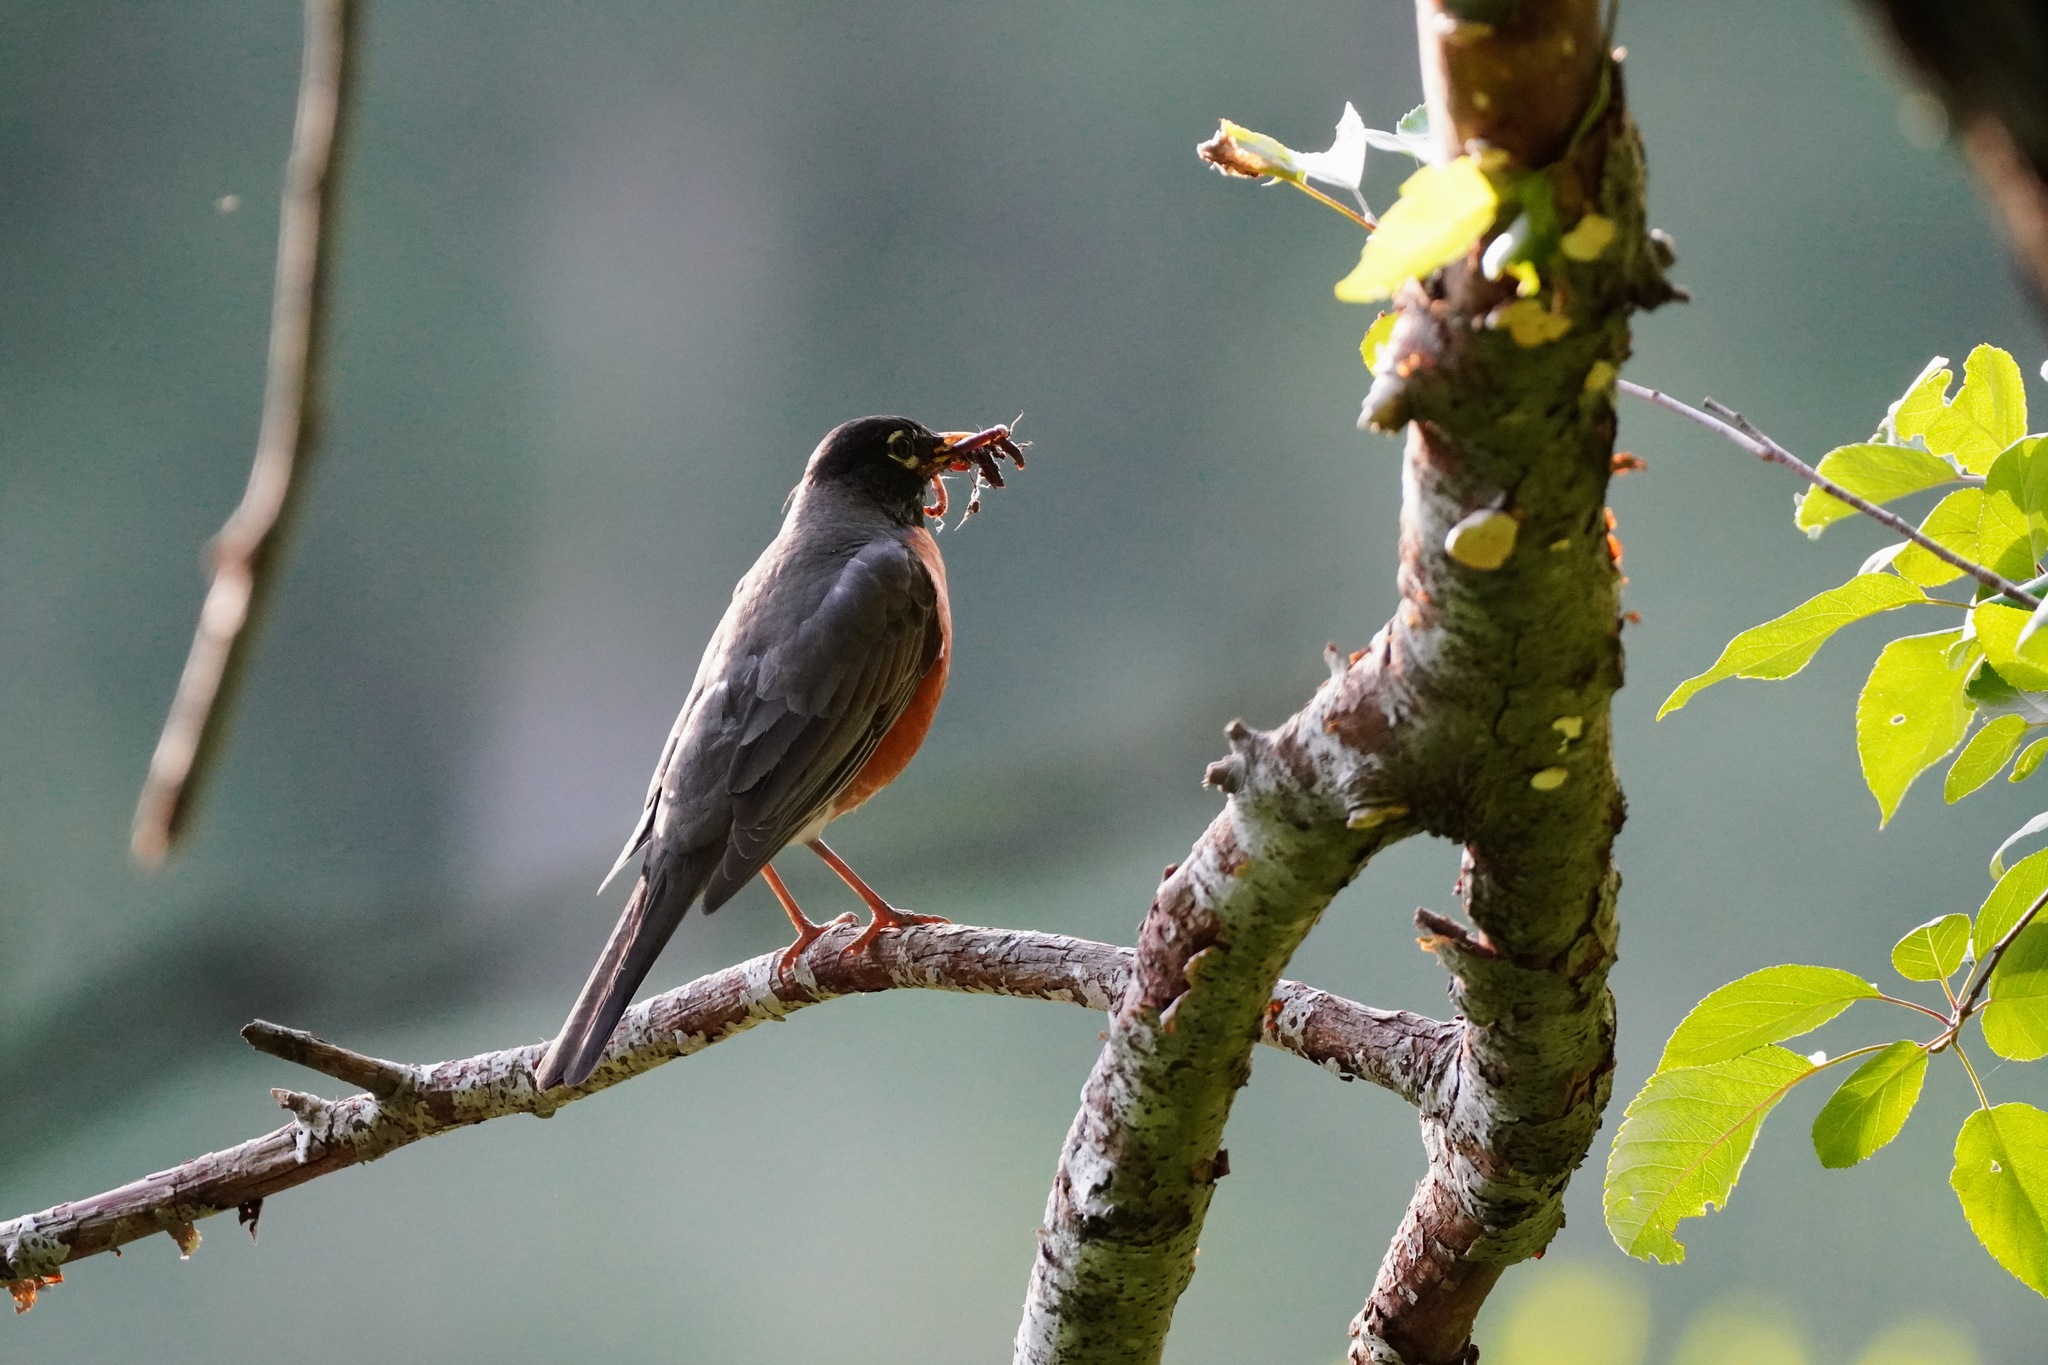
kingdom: Animalia
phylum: Chordata
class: Aves
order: Passeriformes
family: Turdidae
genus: Turdus
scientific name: Turdus migratorius
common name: American robin
